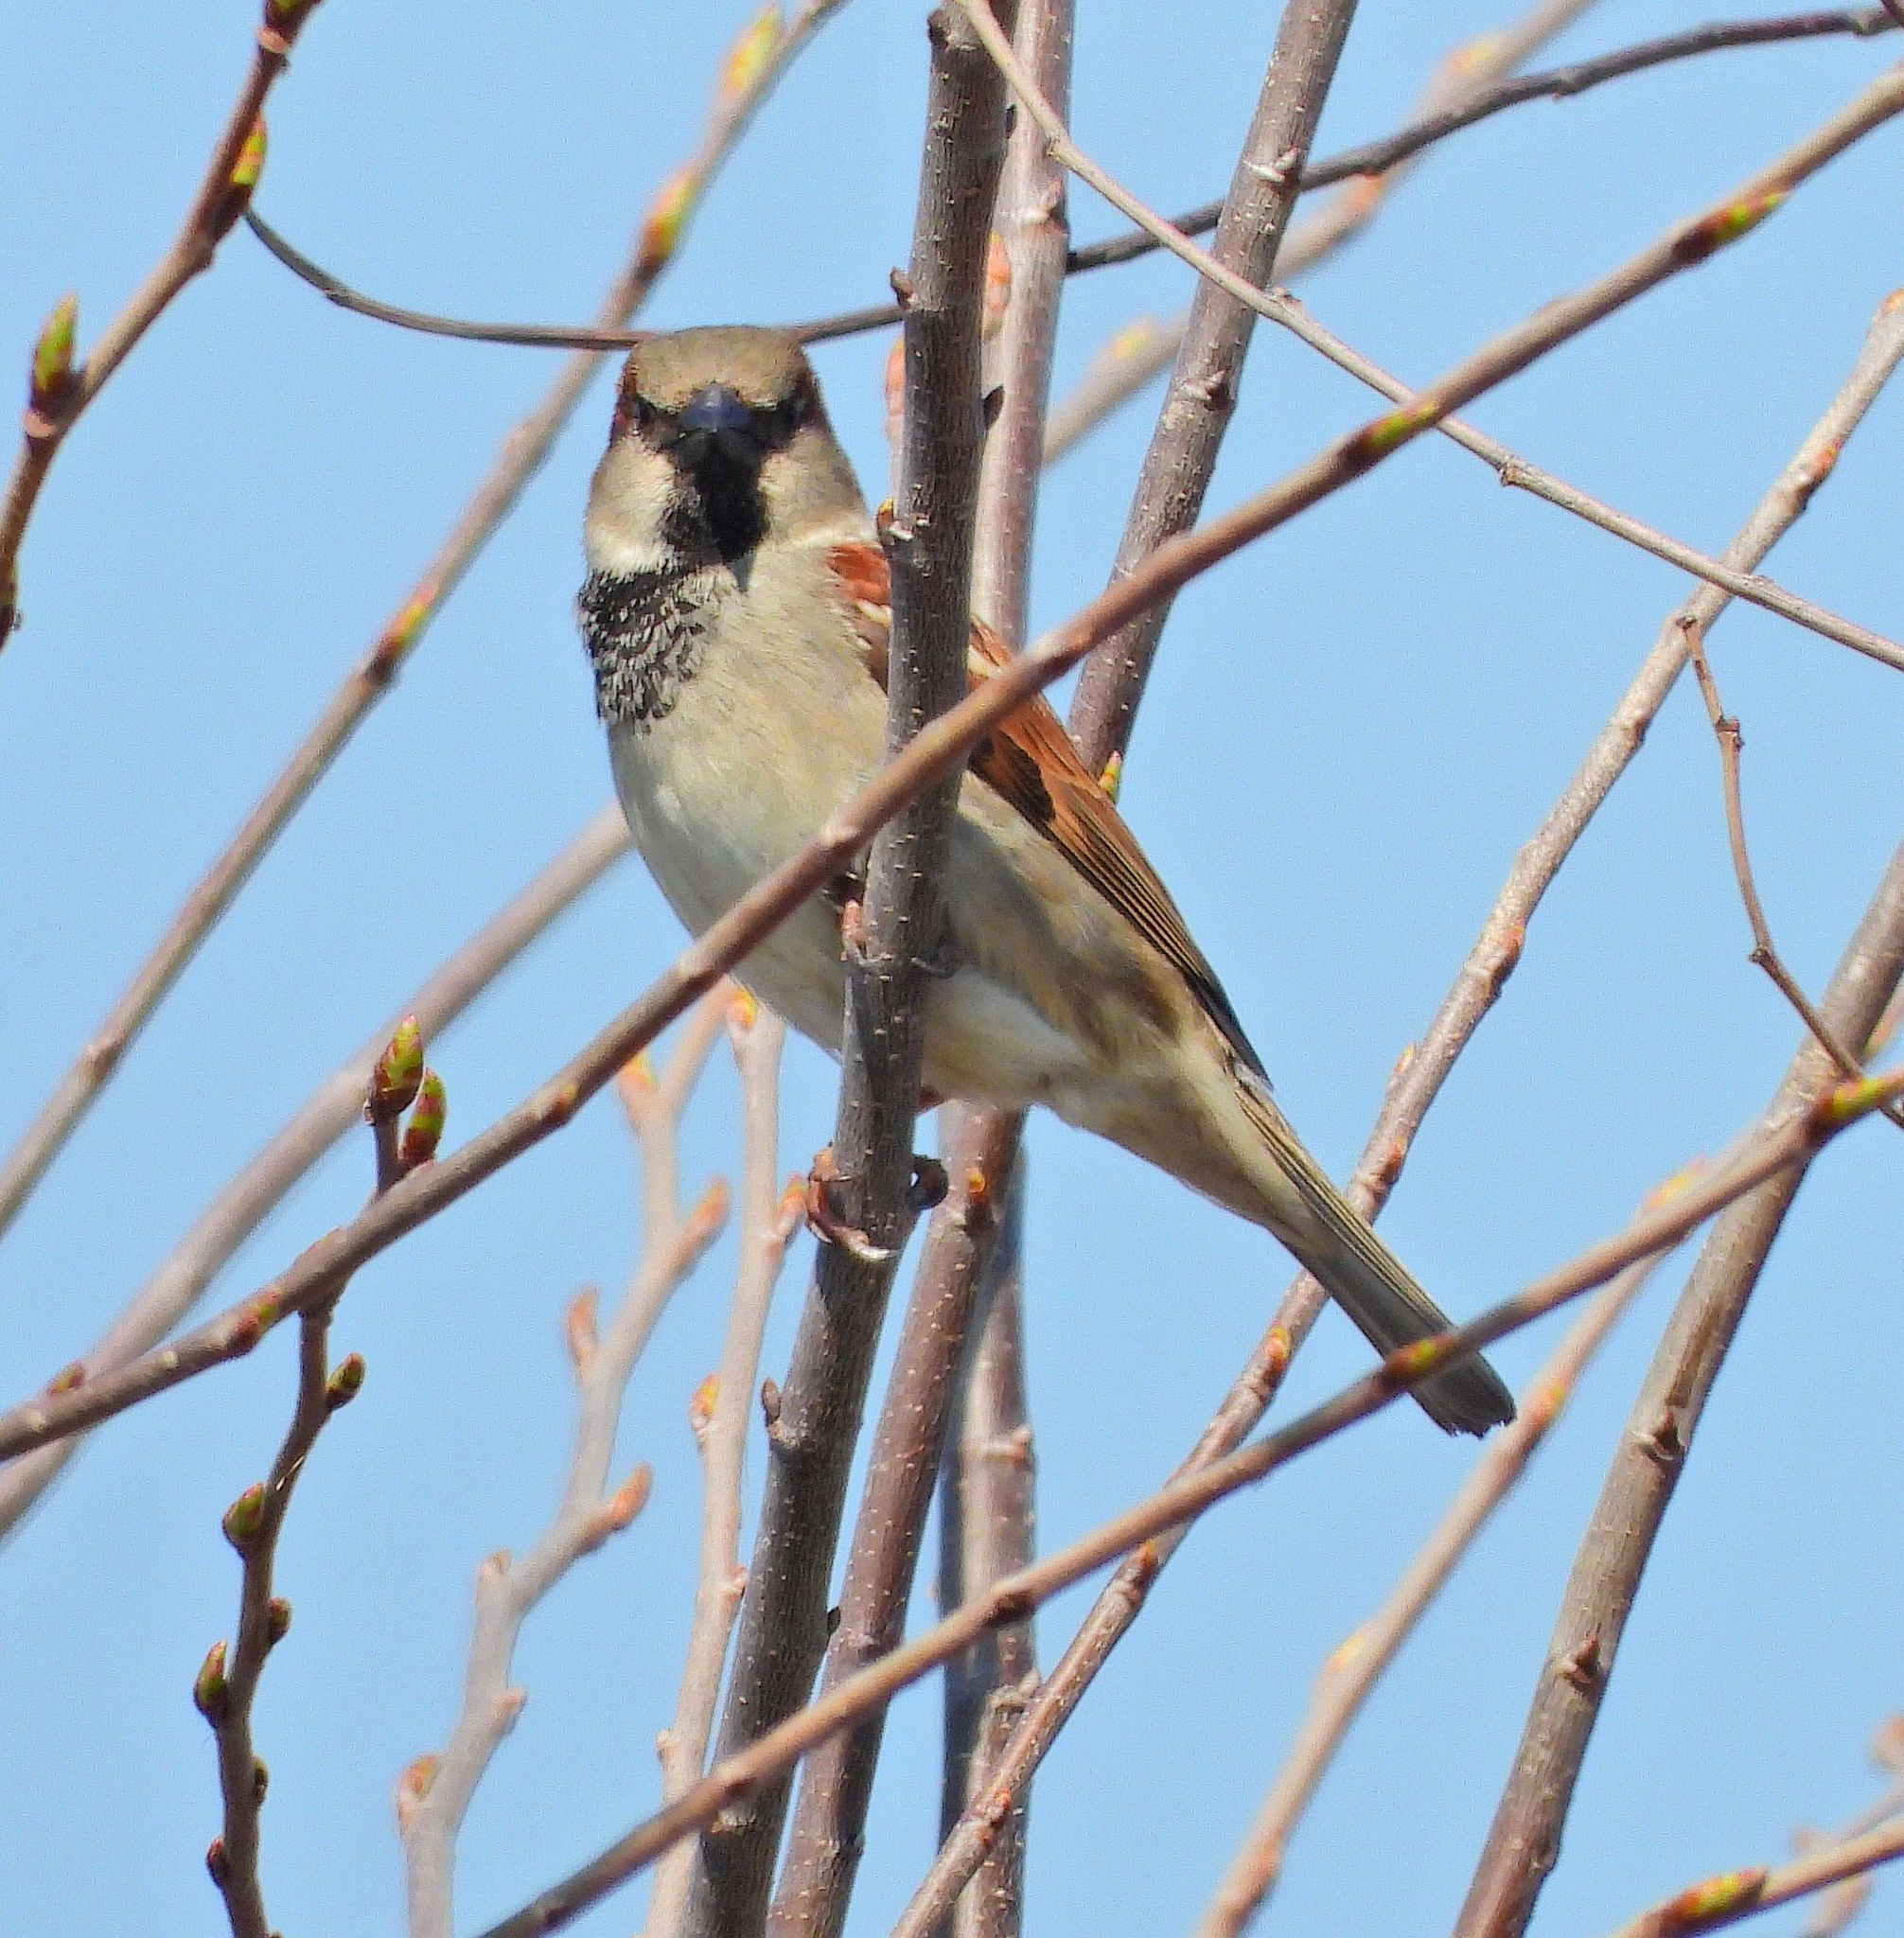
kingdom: Animalia
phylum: Chordata
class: Aves
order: Passeriformes
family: Passeridae
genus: Passer
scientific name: Passer domesticus
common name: House sparrow
